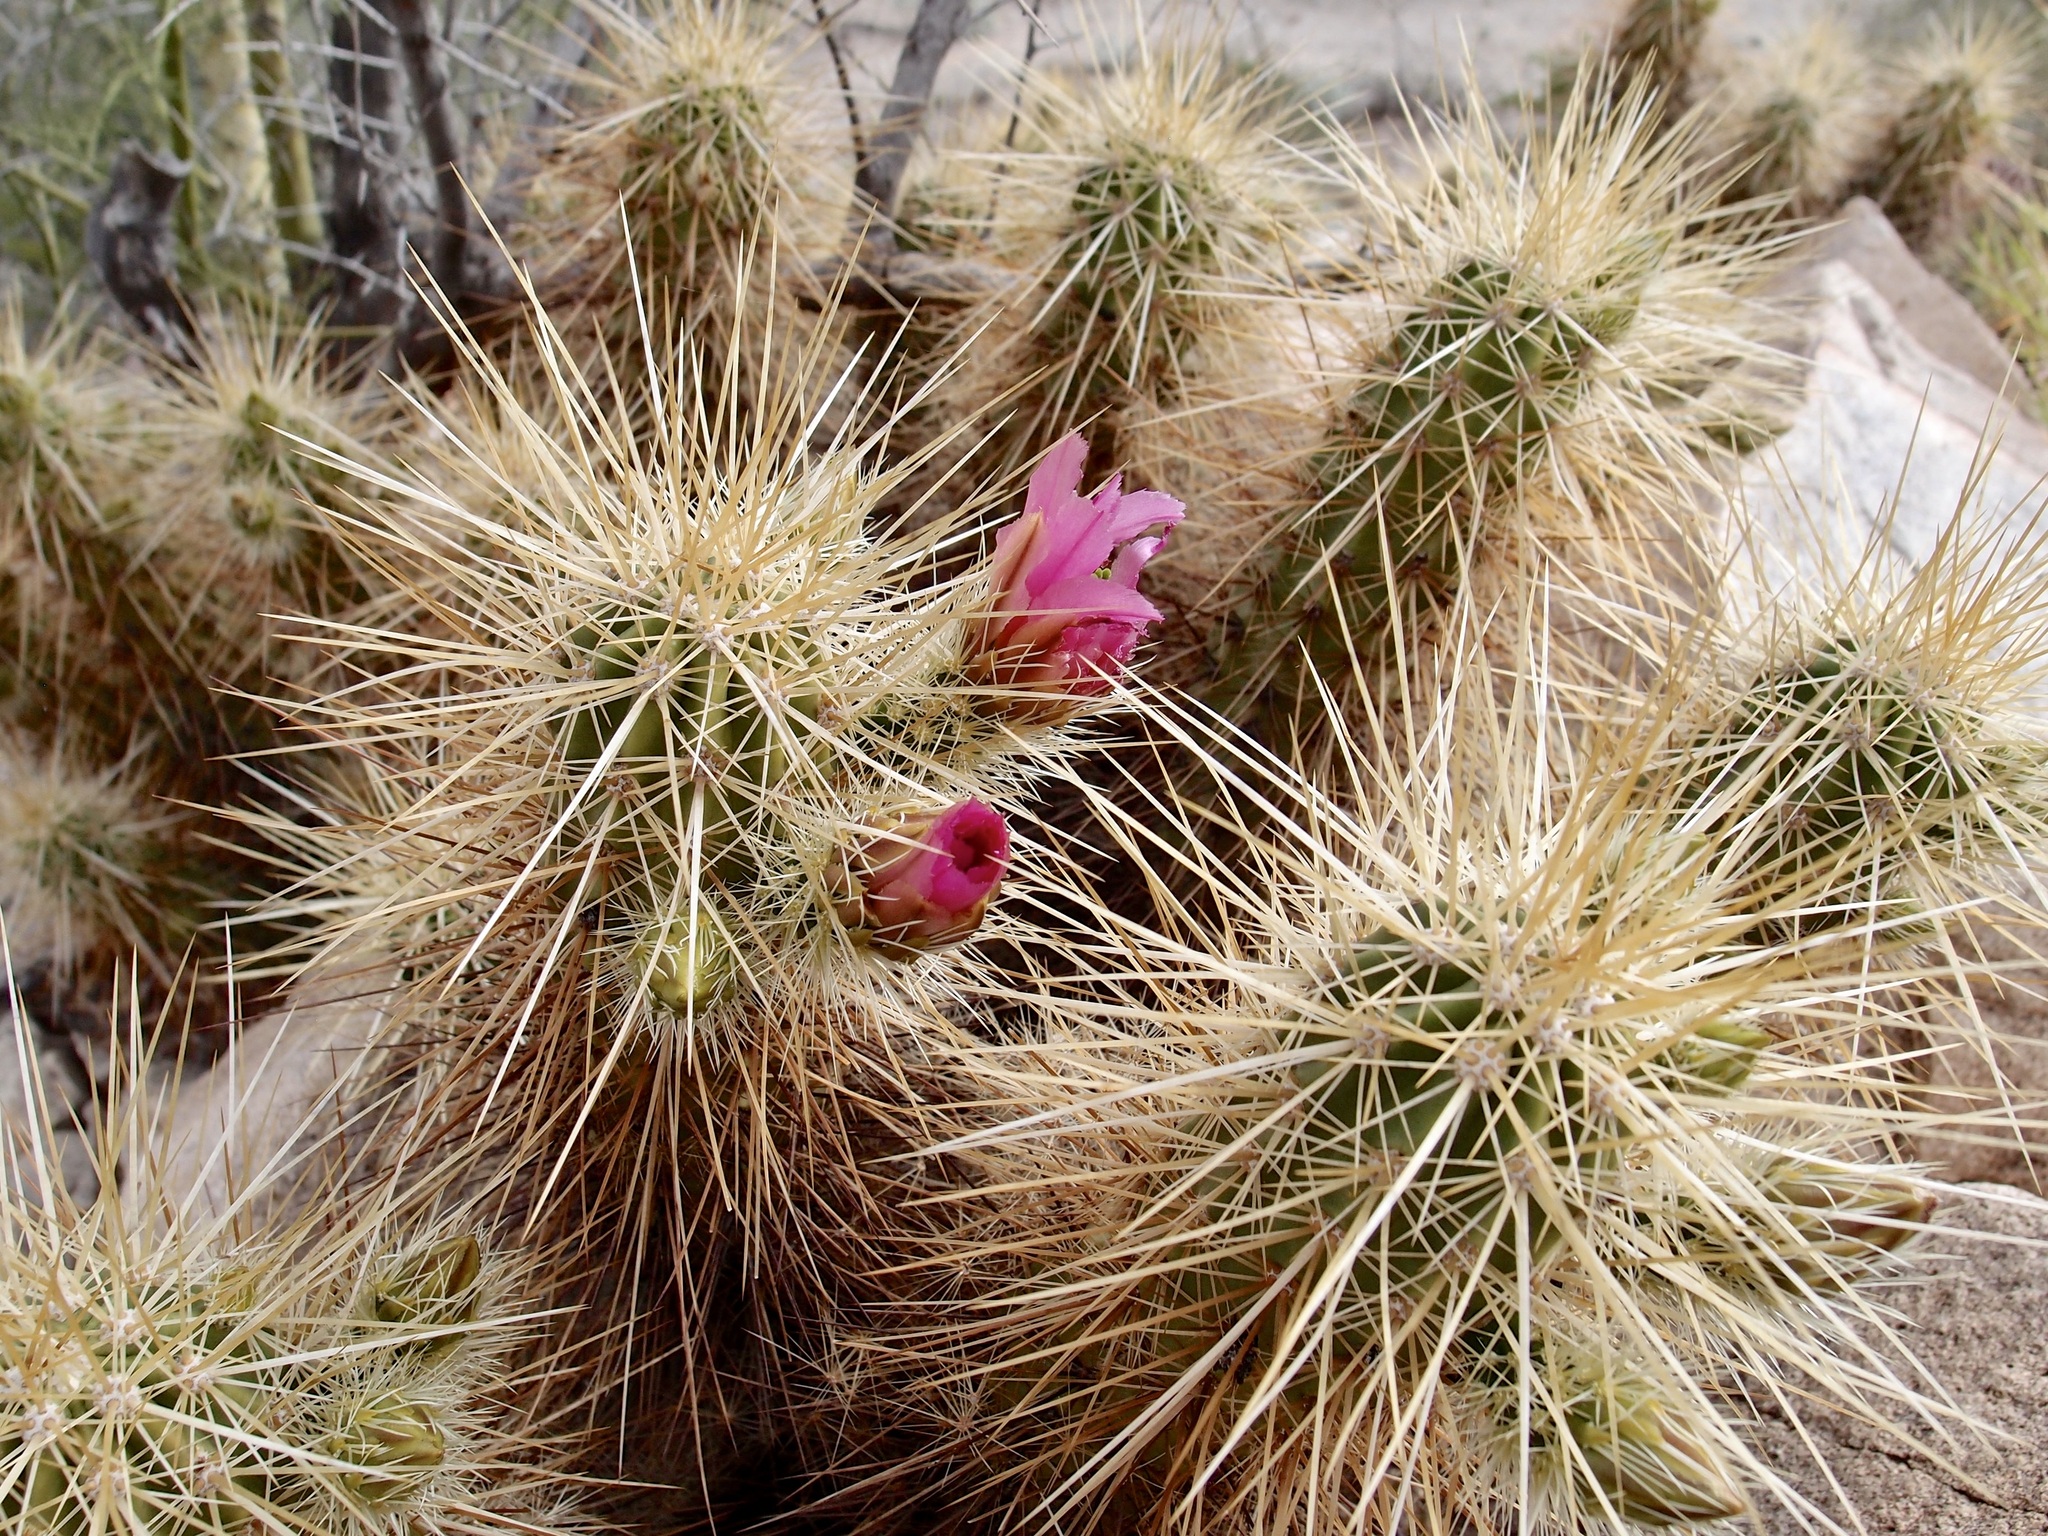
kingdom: Plantae
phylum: Tracheophyta
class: Magnoliopsida
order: Caryophyllales
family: Cactaceae
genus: Echinocereus
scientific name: Echinocereus nicholii
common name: Nichol's hedgehog cactus
